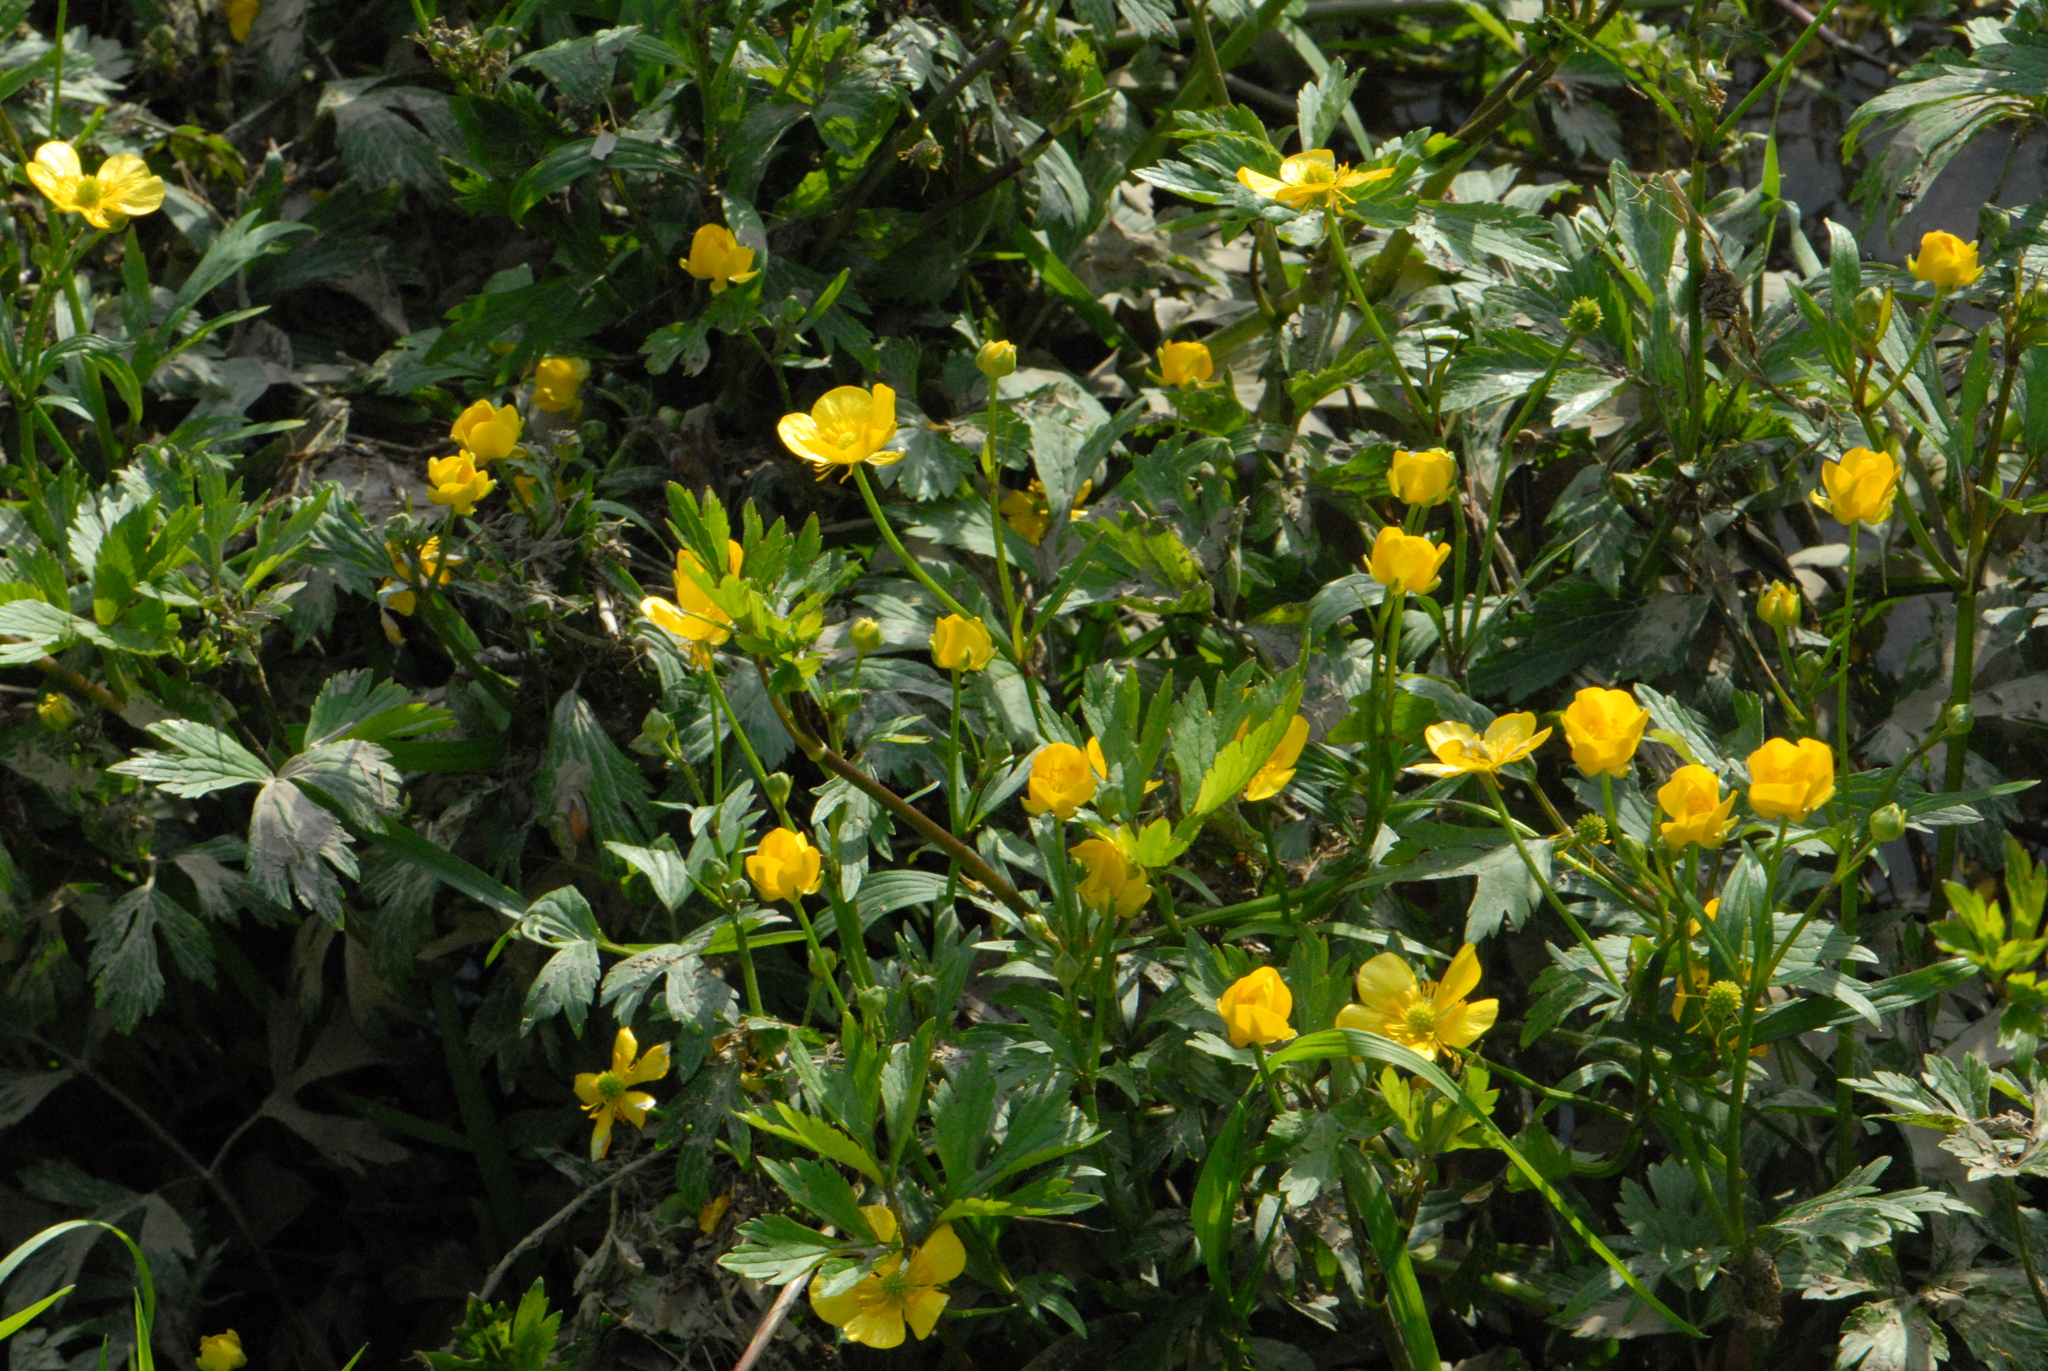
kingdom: Plantae
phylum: Tracheophyta
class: Magnoliopsida
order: Ranunculales
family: Ranunculaceae
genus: Ranunculus
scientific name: Ranunculus repens
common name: Creeping buttercup
